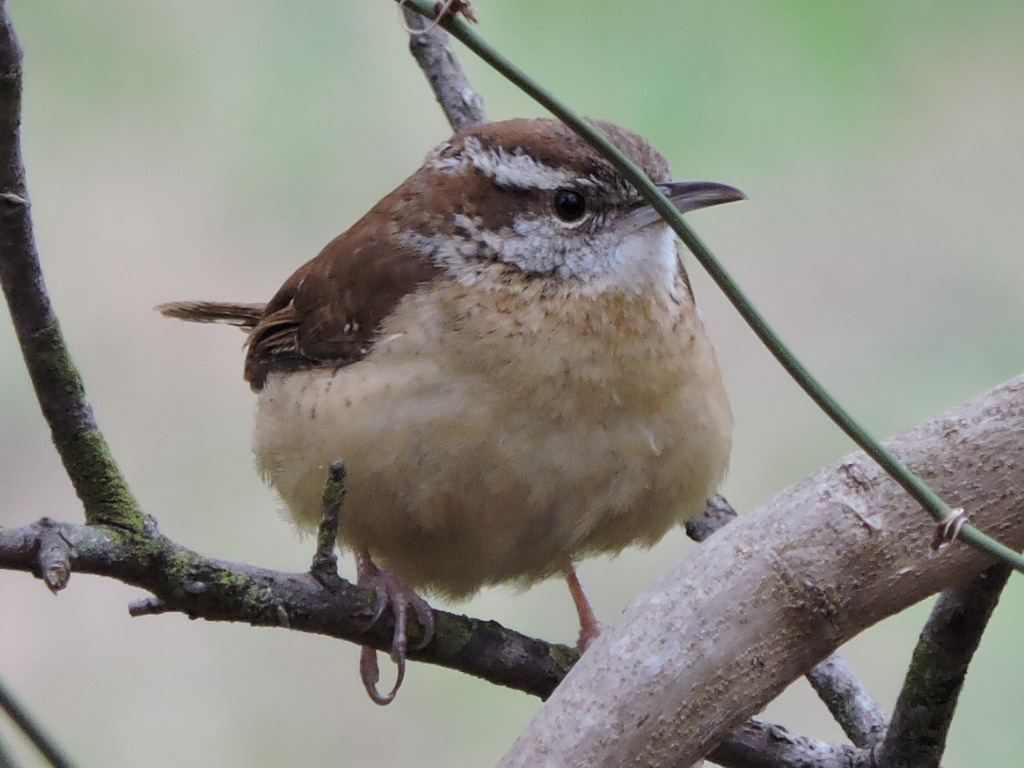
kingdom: Animalia
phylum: Chordata
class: Aves
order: Passeriformes
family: Troglodytidae
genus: Thryothorus
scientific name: Thryothorus ludovicianus
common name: Carolina wren
